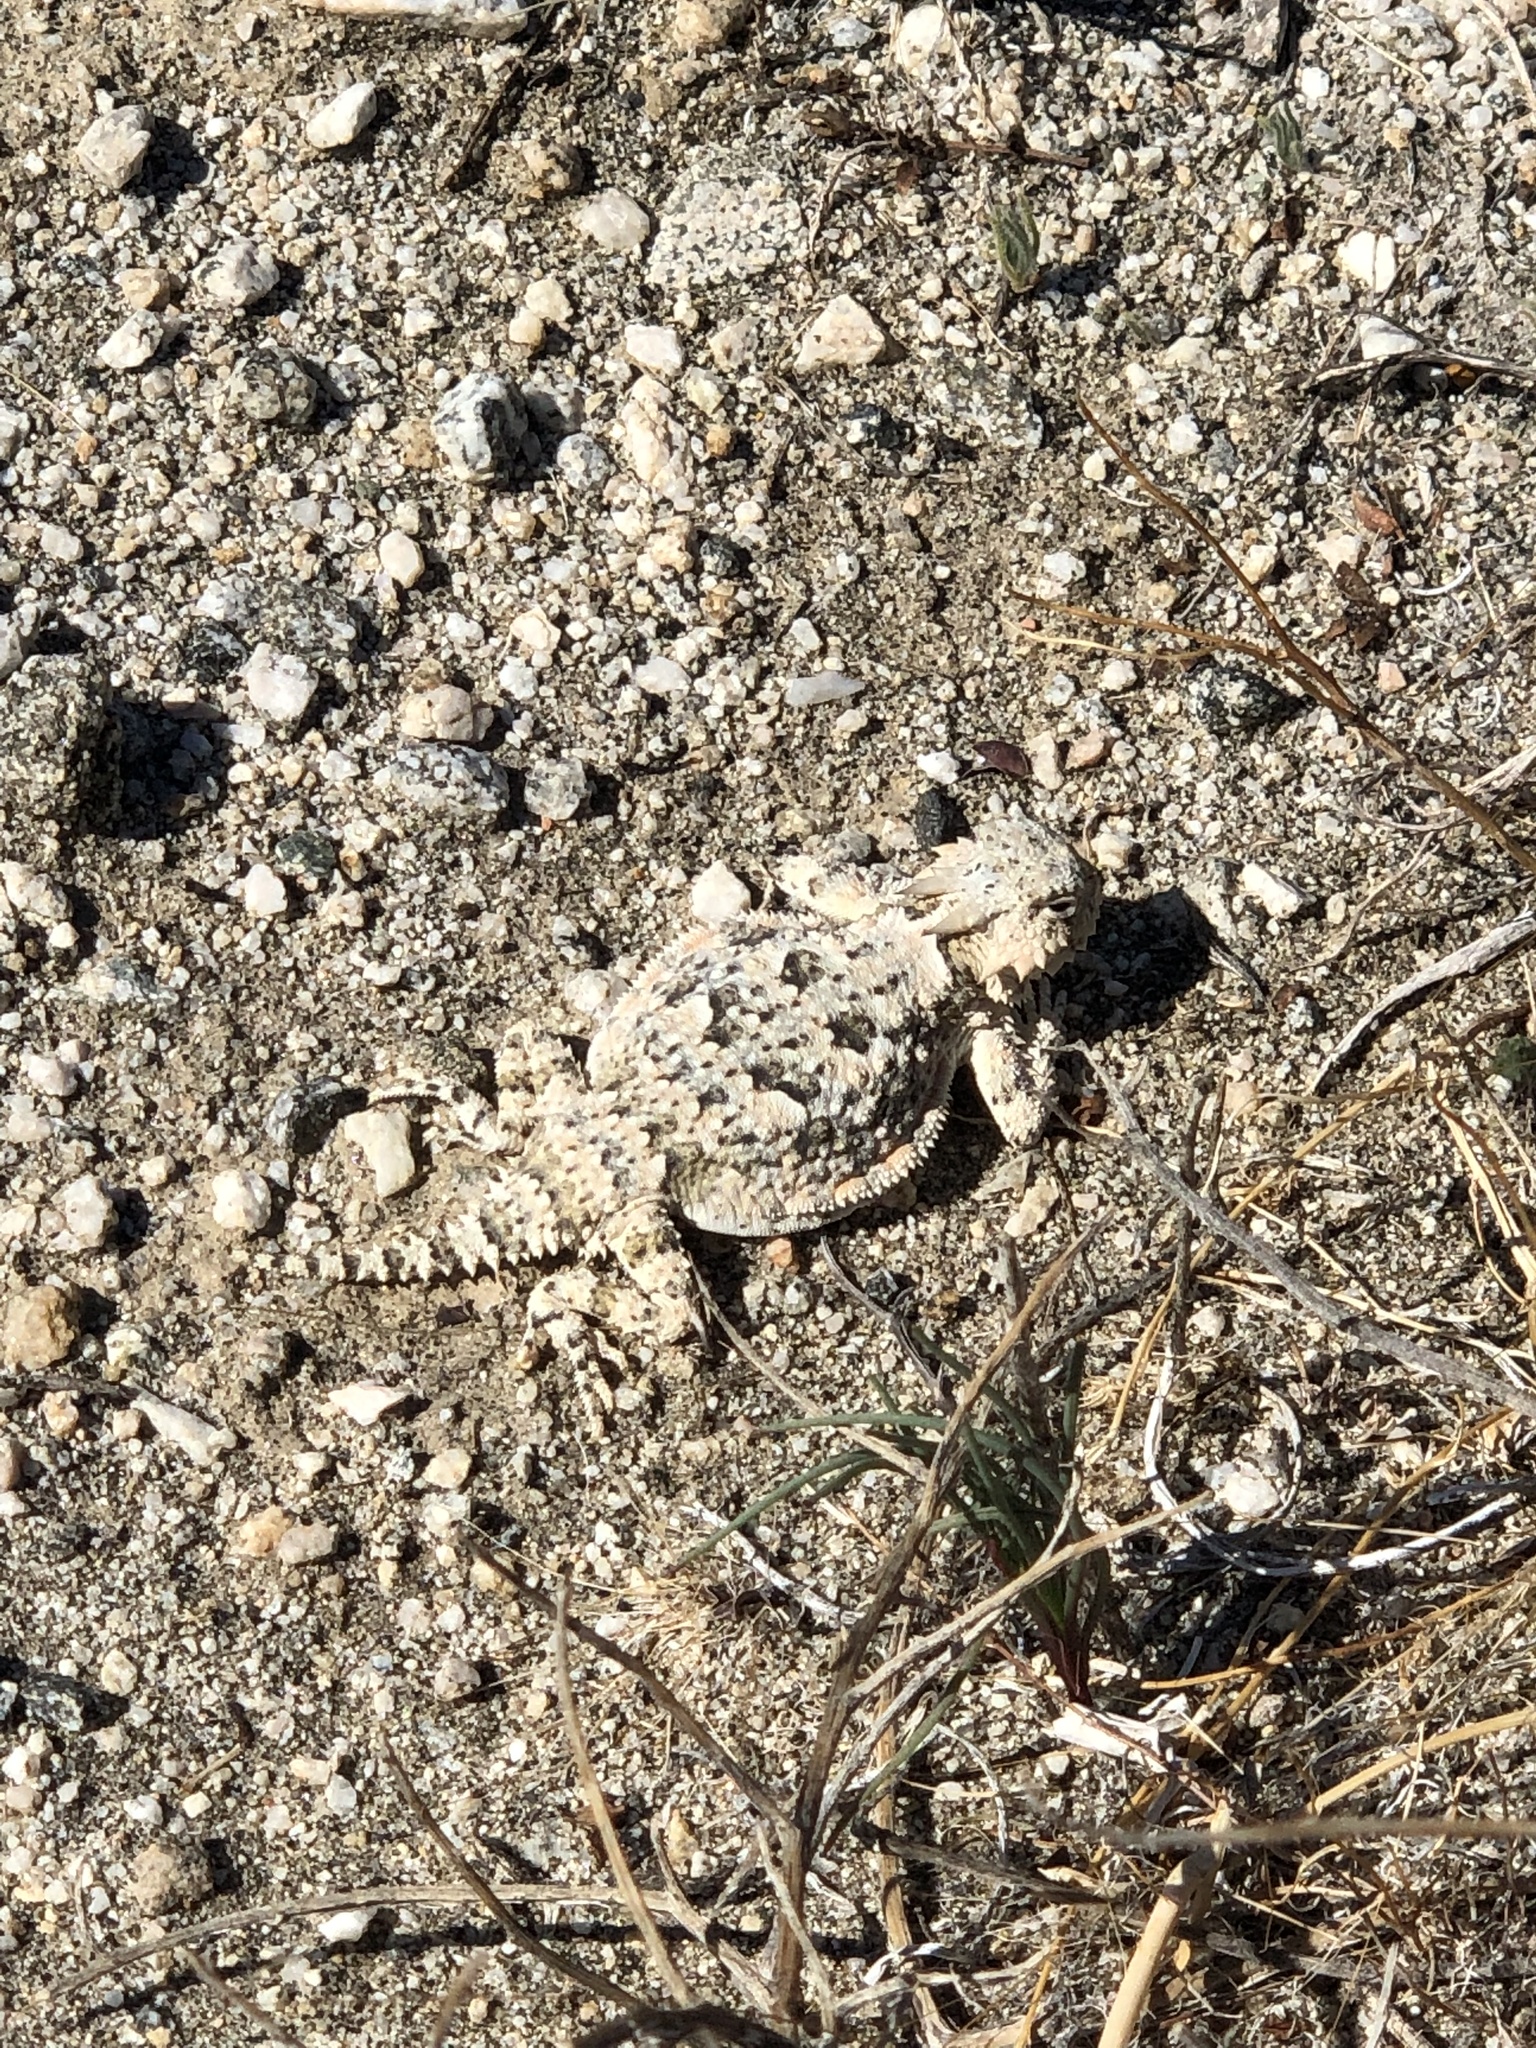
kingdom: Animalia
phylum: Chordata
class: Squamata
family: Phrynosomatidae
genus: Phrynosoma
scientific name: Phrynosoma platyrhinos
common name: Desert horned lizard
